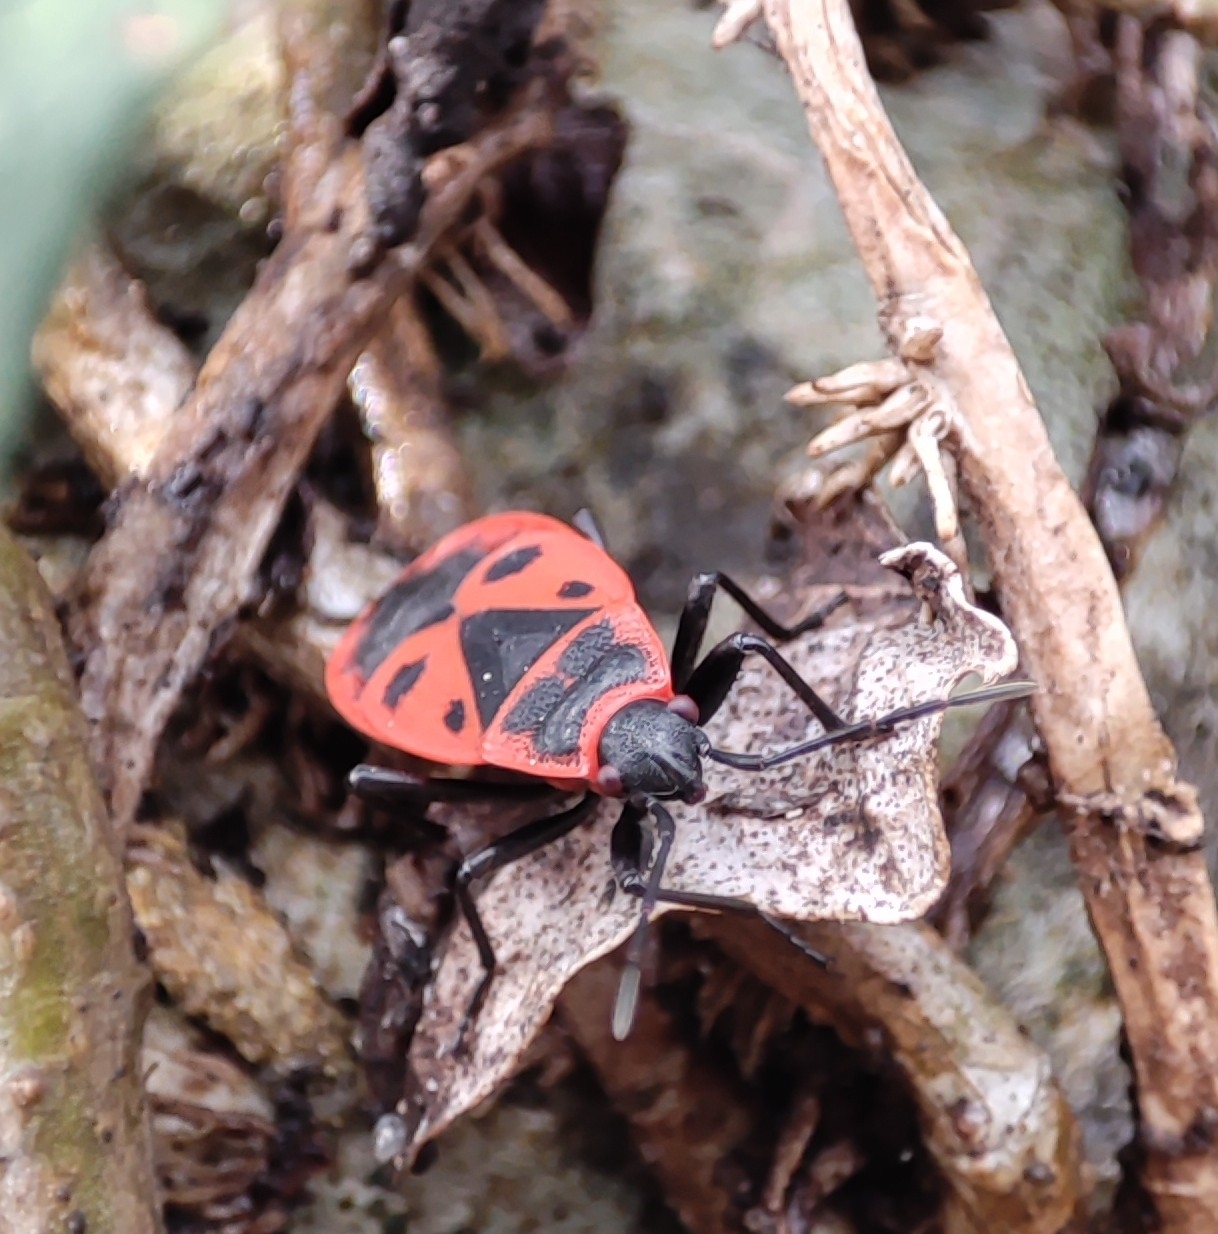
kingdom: Animalia
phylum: Arthropoda
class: Insecta
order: Hemiptera
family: Pyrrhocoridae
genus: Pyrrhocoris
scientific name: Pyrrhocoris apterus
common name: Firebug
